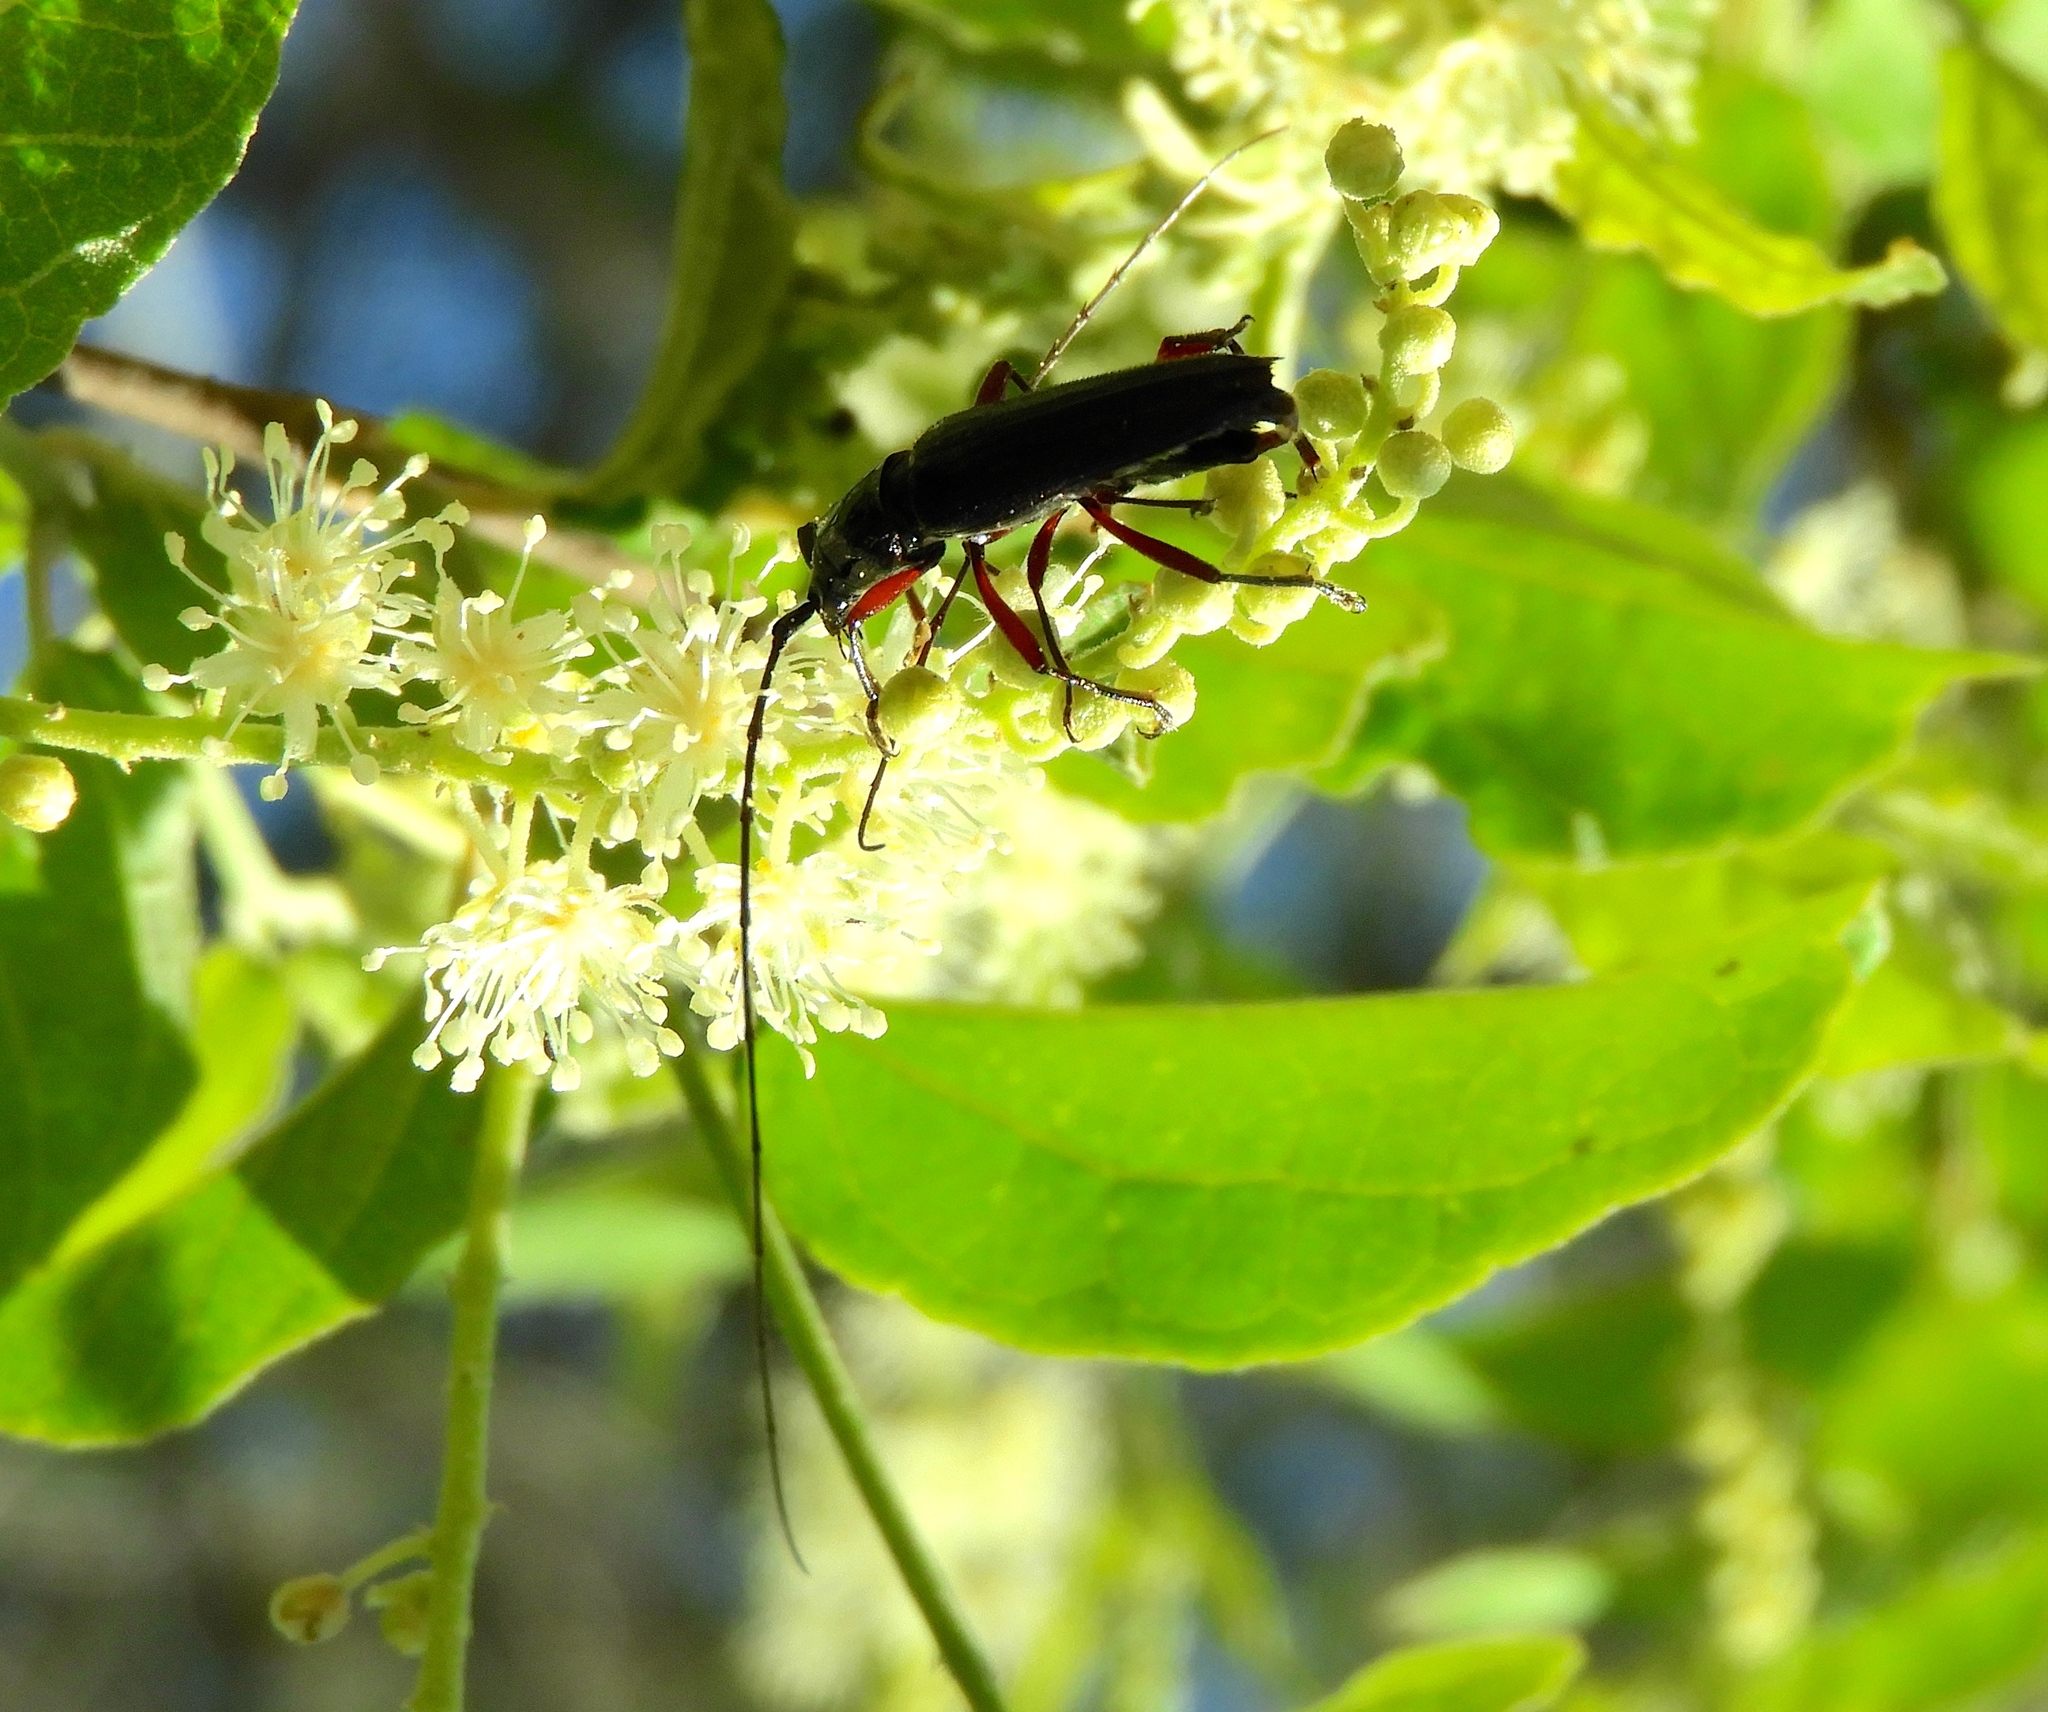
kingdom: Animalia
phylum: Arthropoda
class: Insecta
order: Coleoptera
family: Cerambycidae
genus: Stenosphenus
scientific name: Stenosphenus
